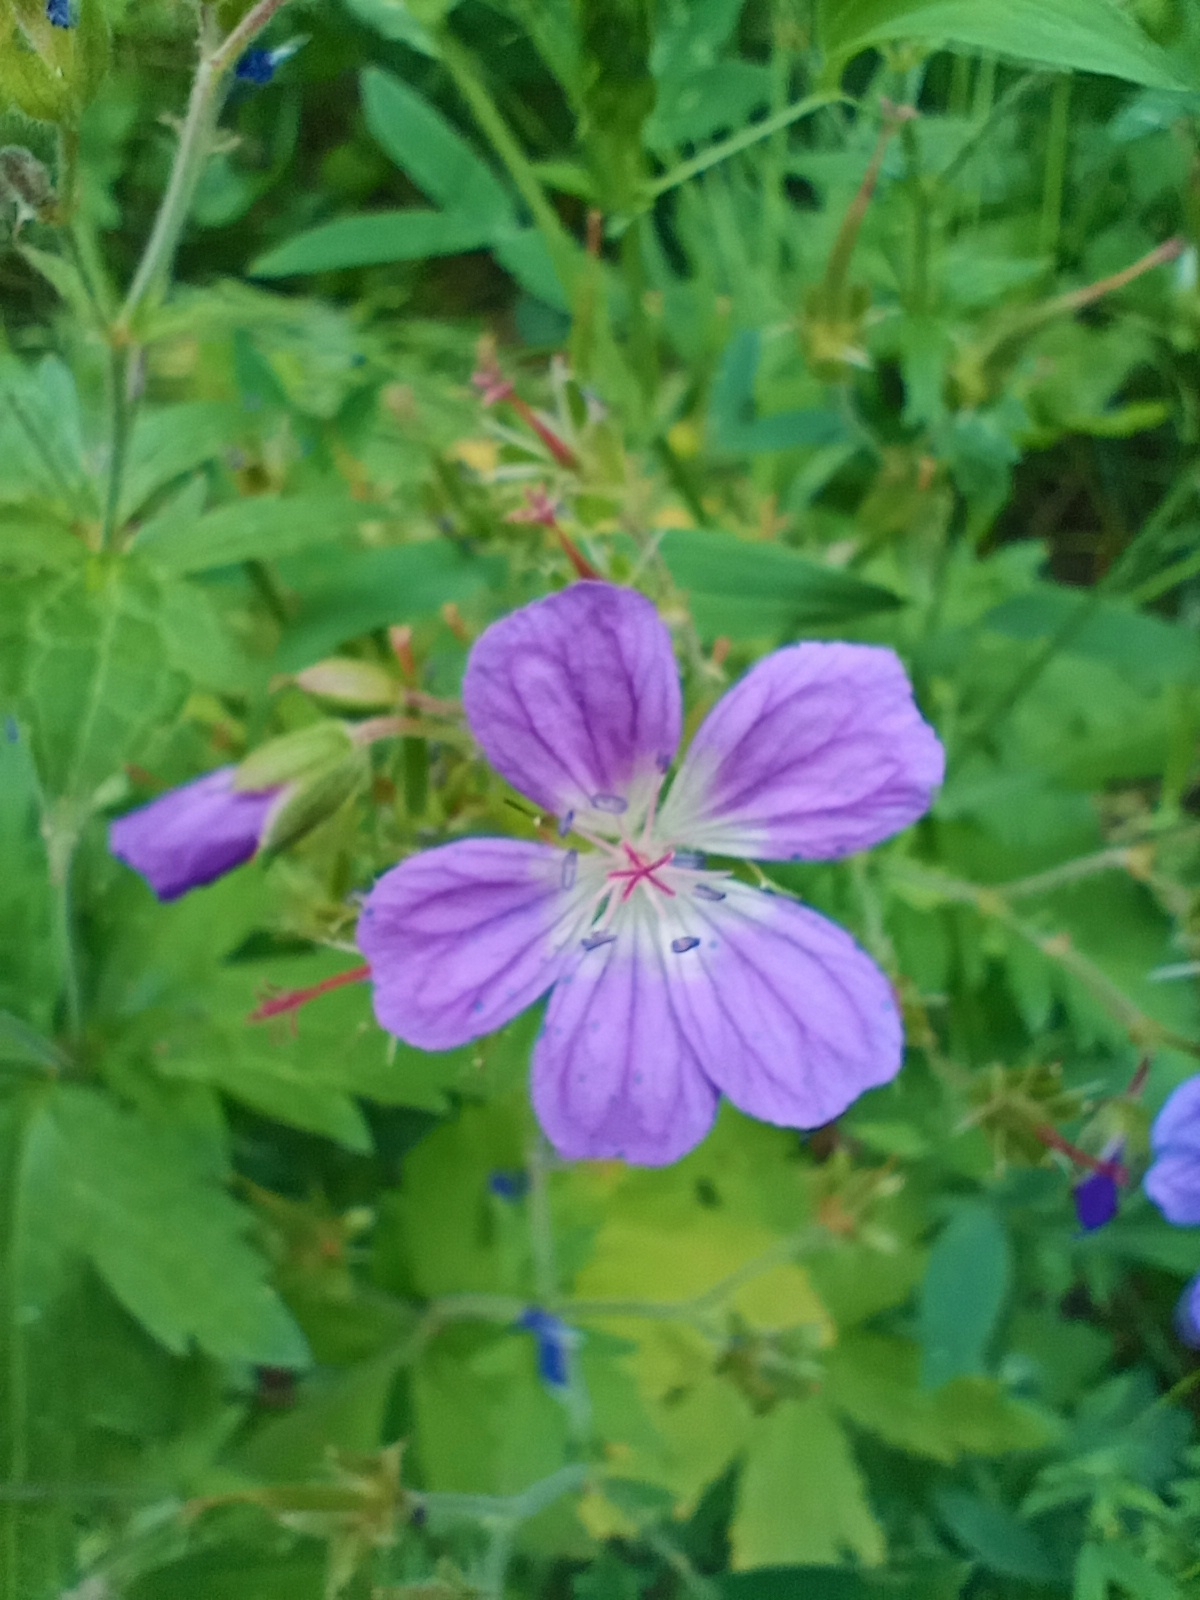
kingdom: Plantae
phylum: Tracheophyta
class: Magnoliopsida
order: Geraniales
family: Geraniaceae
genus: Geranium
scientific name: Geranium sylvaticum
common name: Wood crane's-bill
